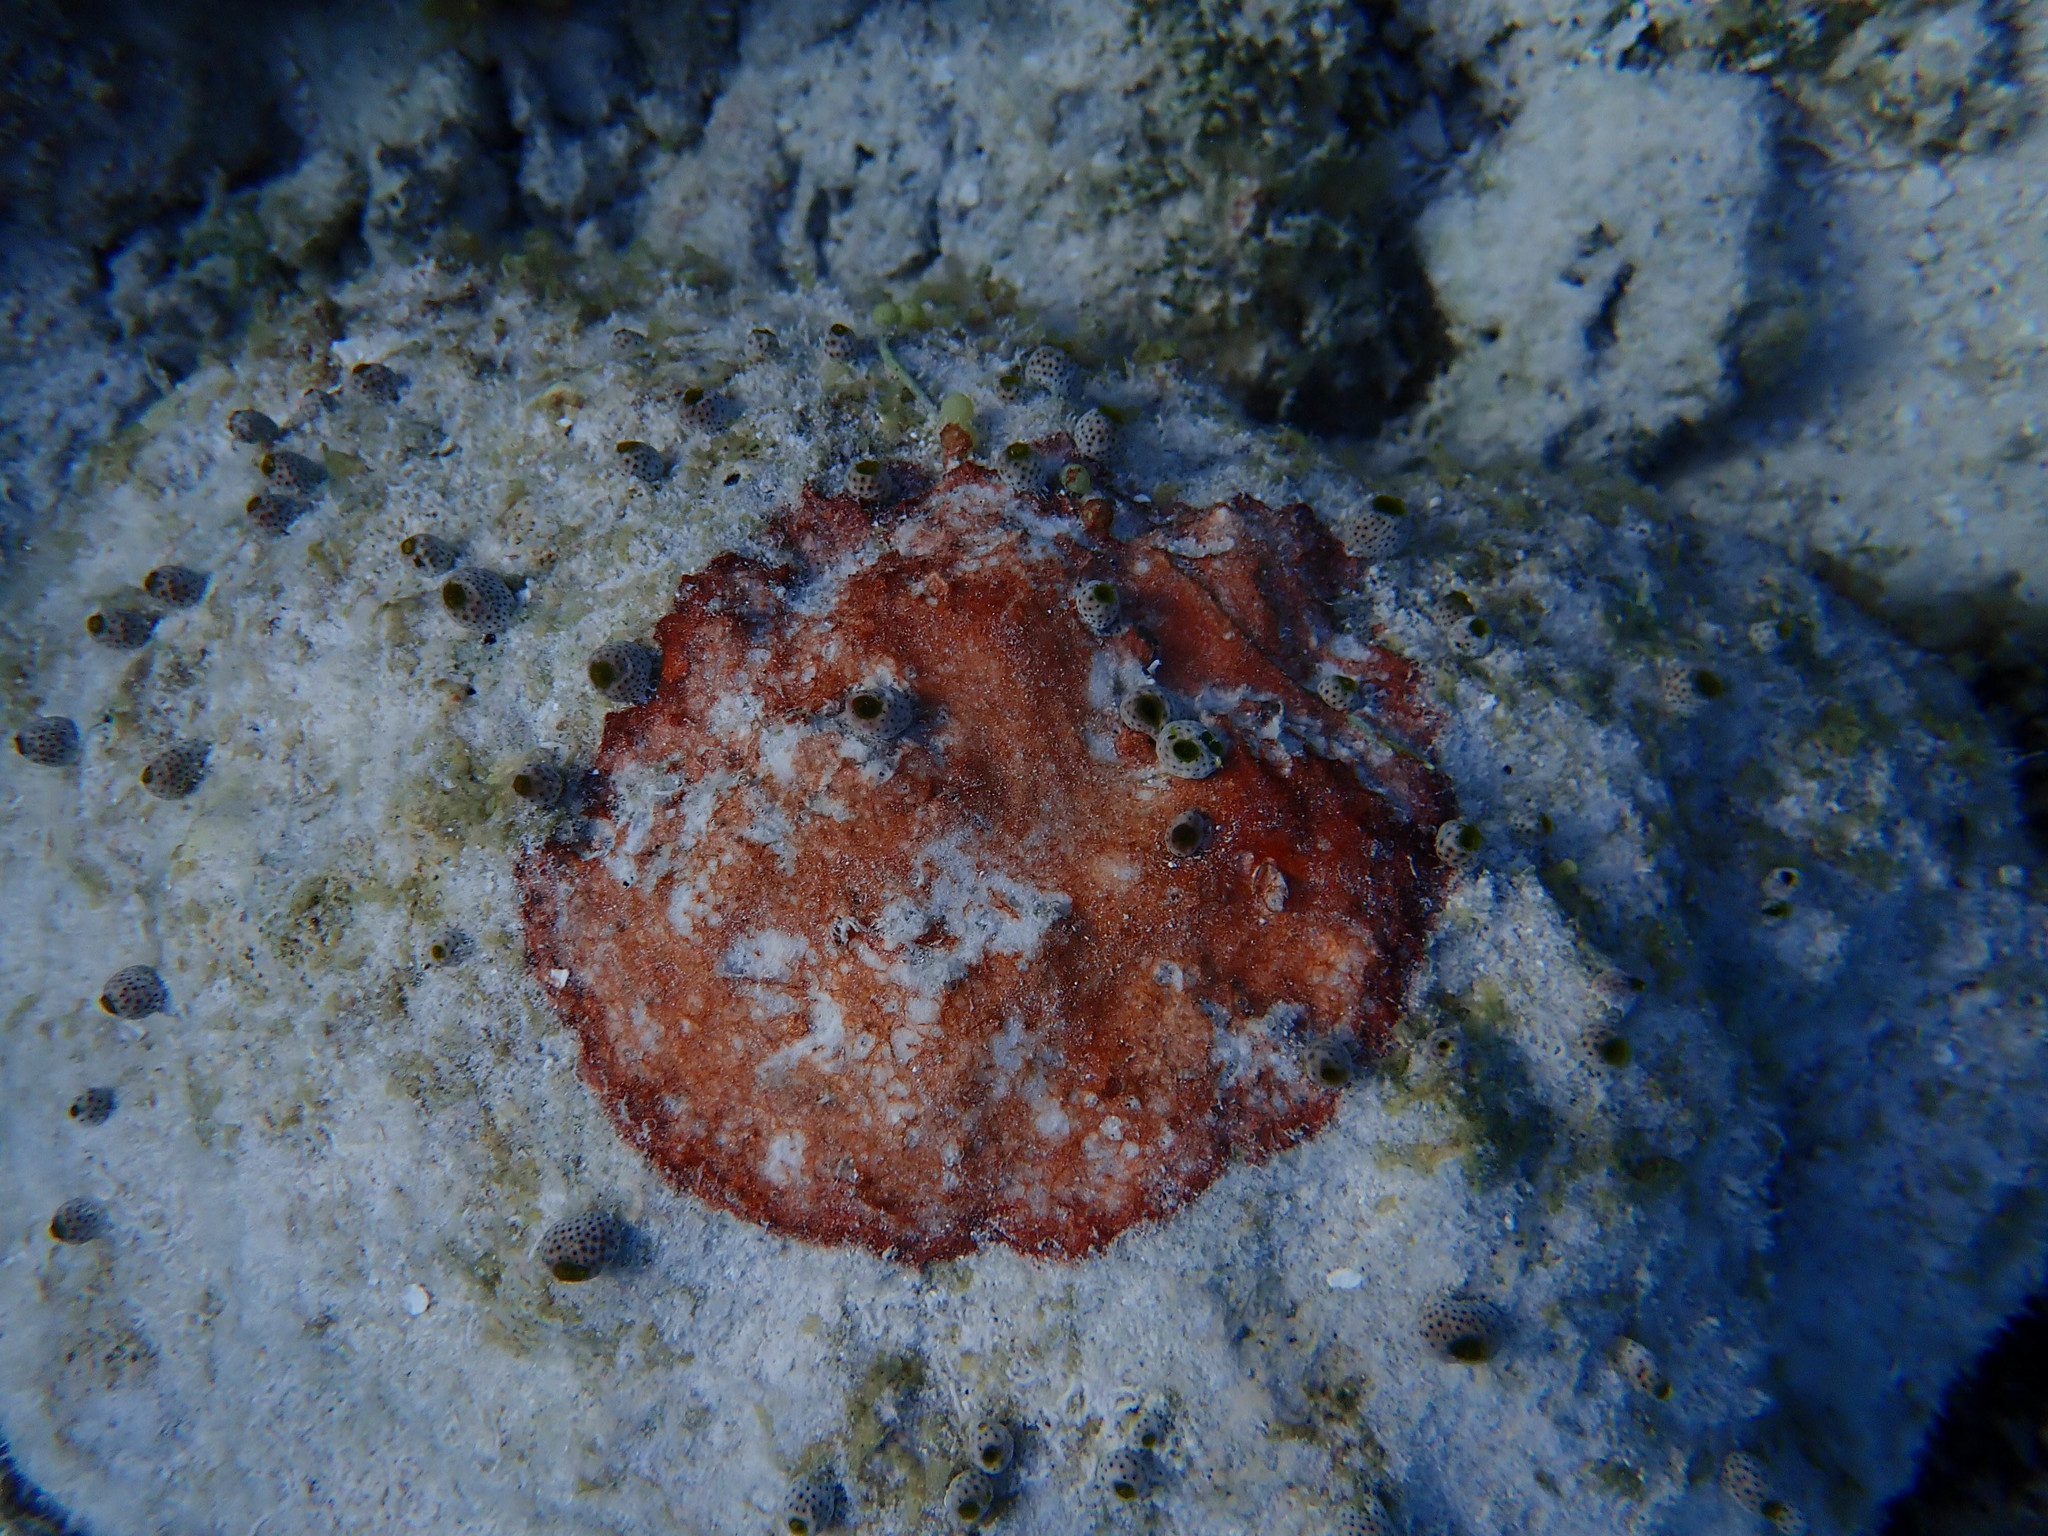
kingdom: Animalia
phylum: Chordata
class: Ascidiacea
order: Aplousobranchia
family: Didemnidae
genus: Didemnum
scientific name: Didemnum molle
